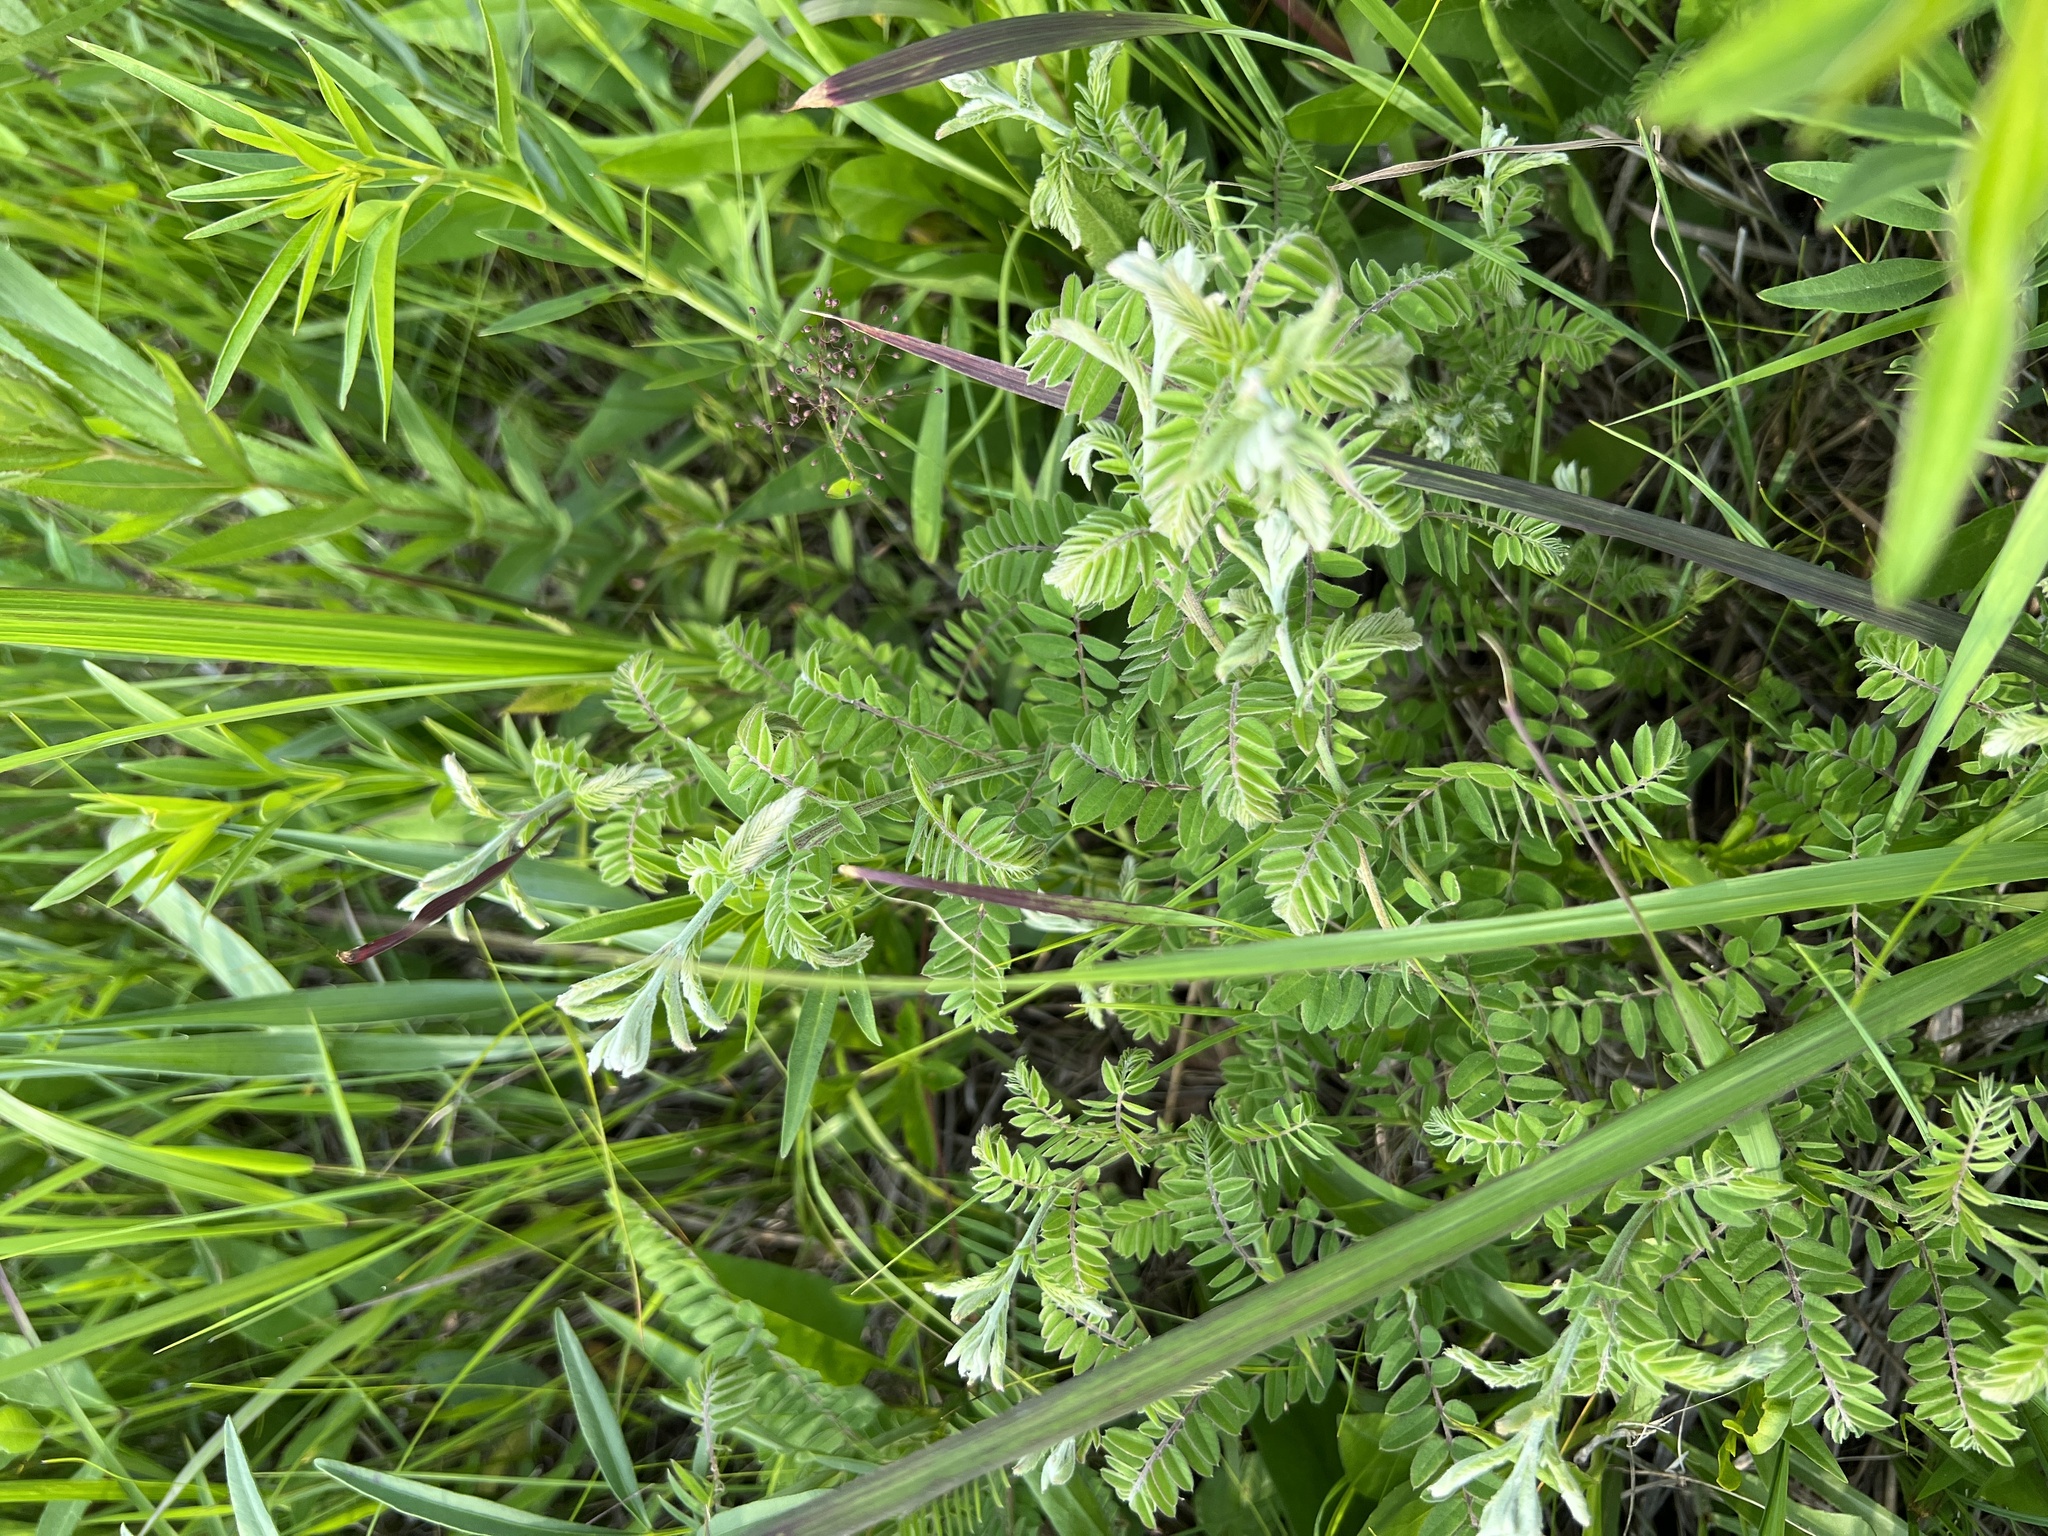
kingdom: Plantae
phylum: Tracheophyta
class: Magnoliopsida
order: Fabales
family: Fabaceae
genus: Amorpha
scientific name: Amorpha canescens
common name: Leadplant
